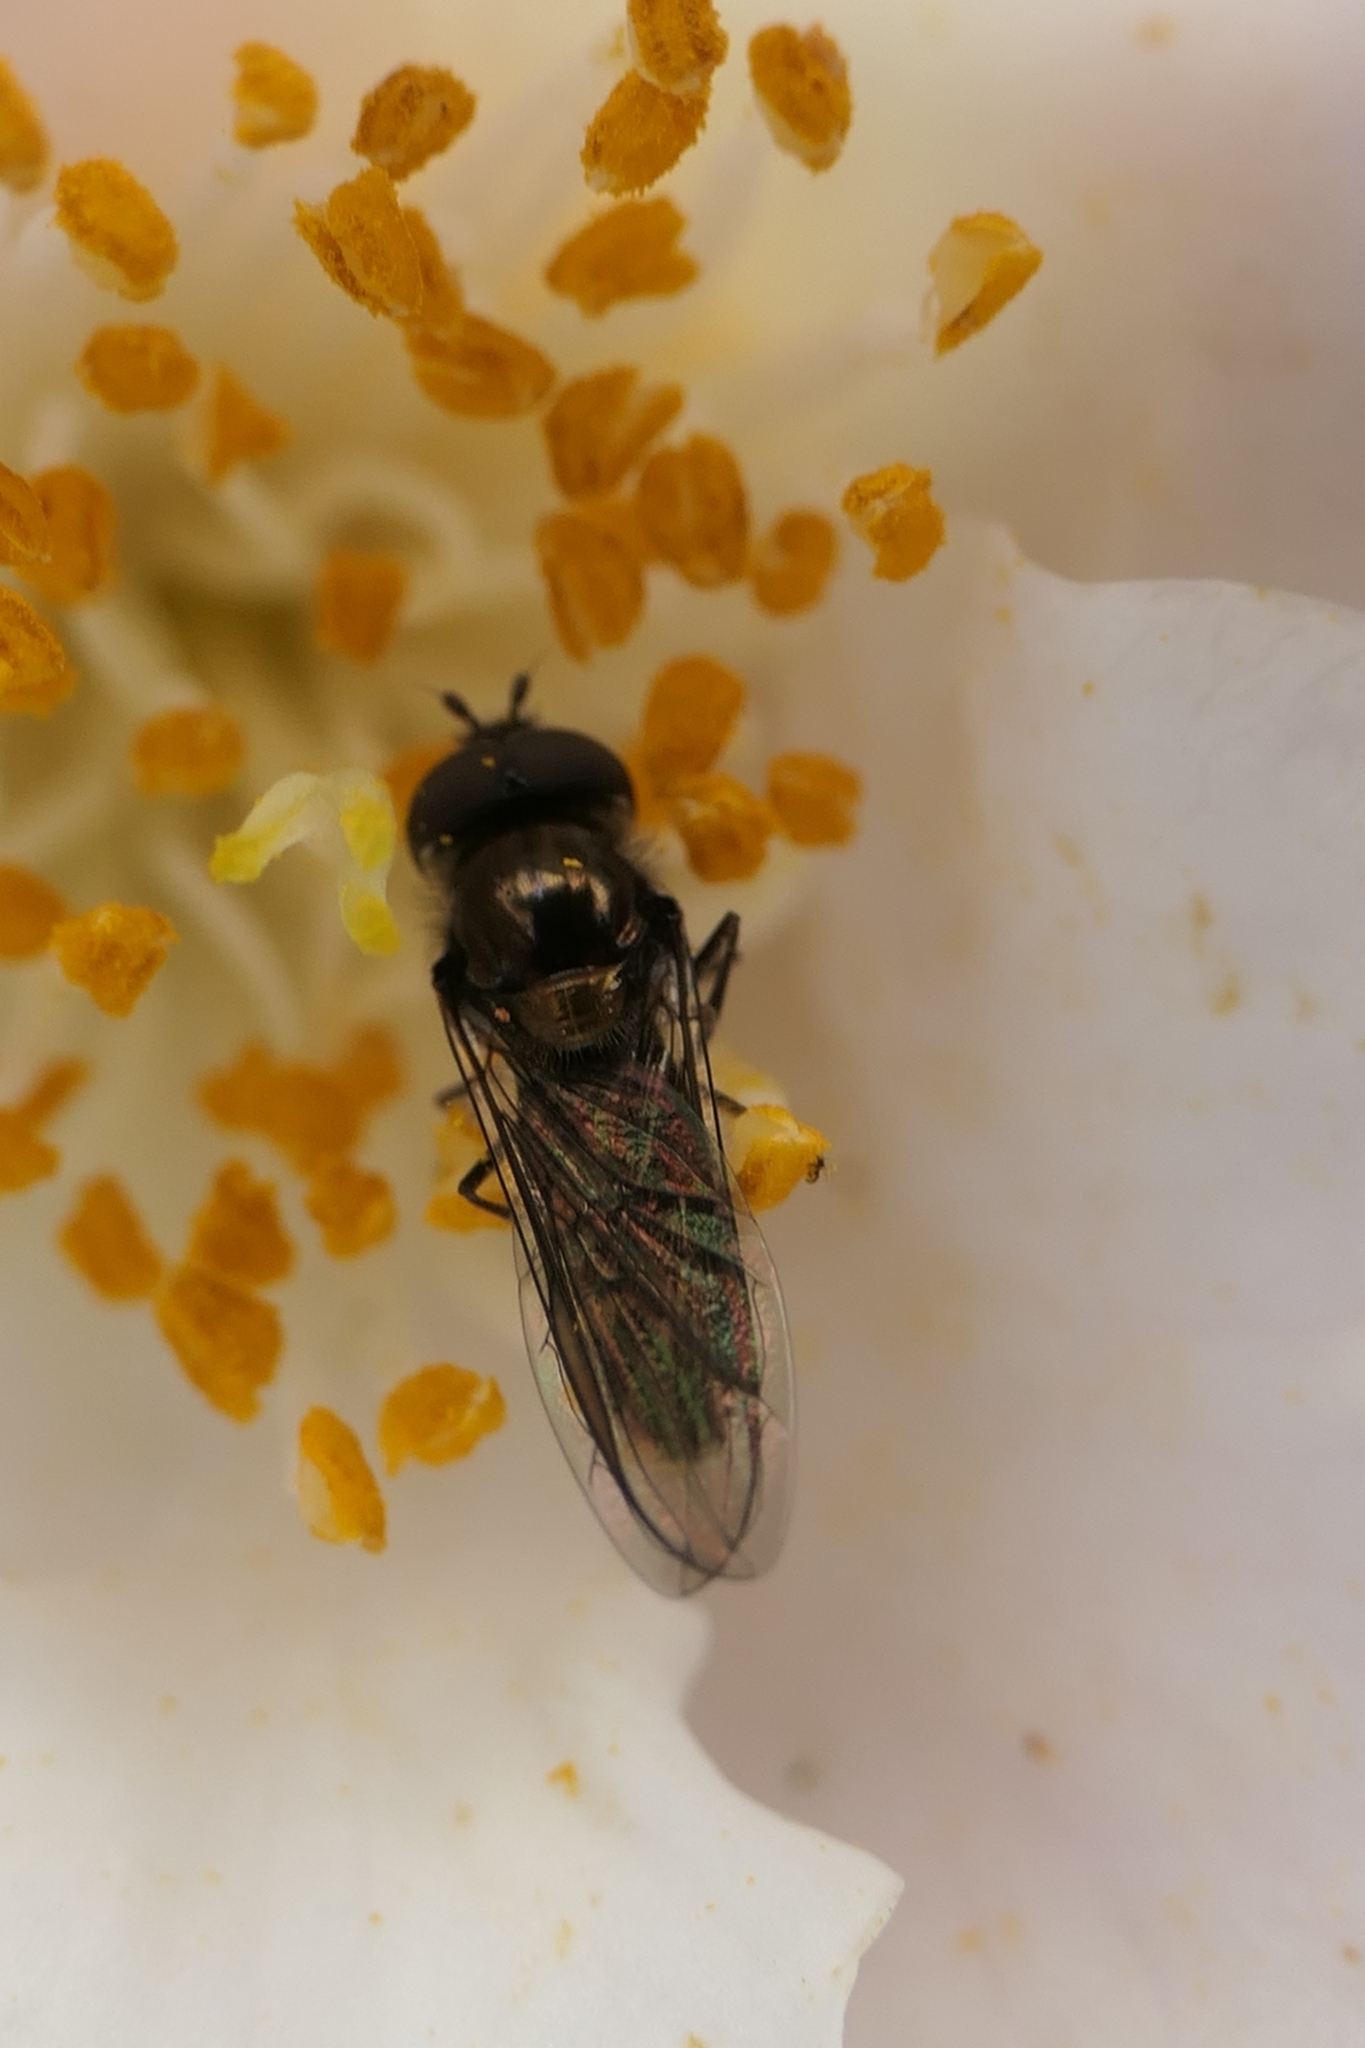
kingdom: Animalia
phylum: Arthropoda
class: Insecta
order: Diptera
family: Syrphidae
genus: Melangyna
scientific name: Melangyna novaezelandiae
